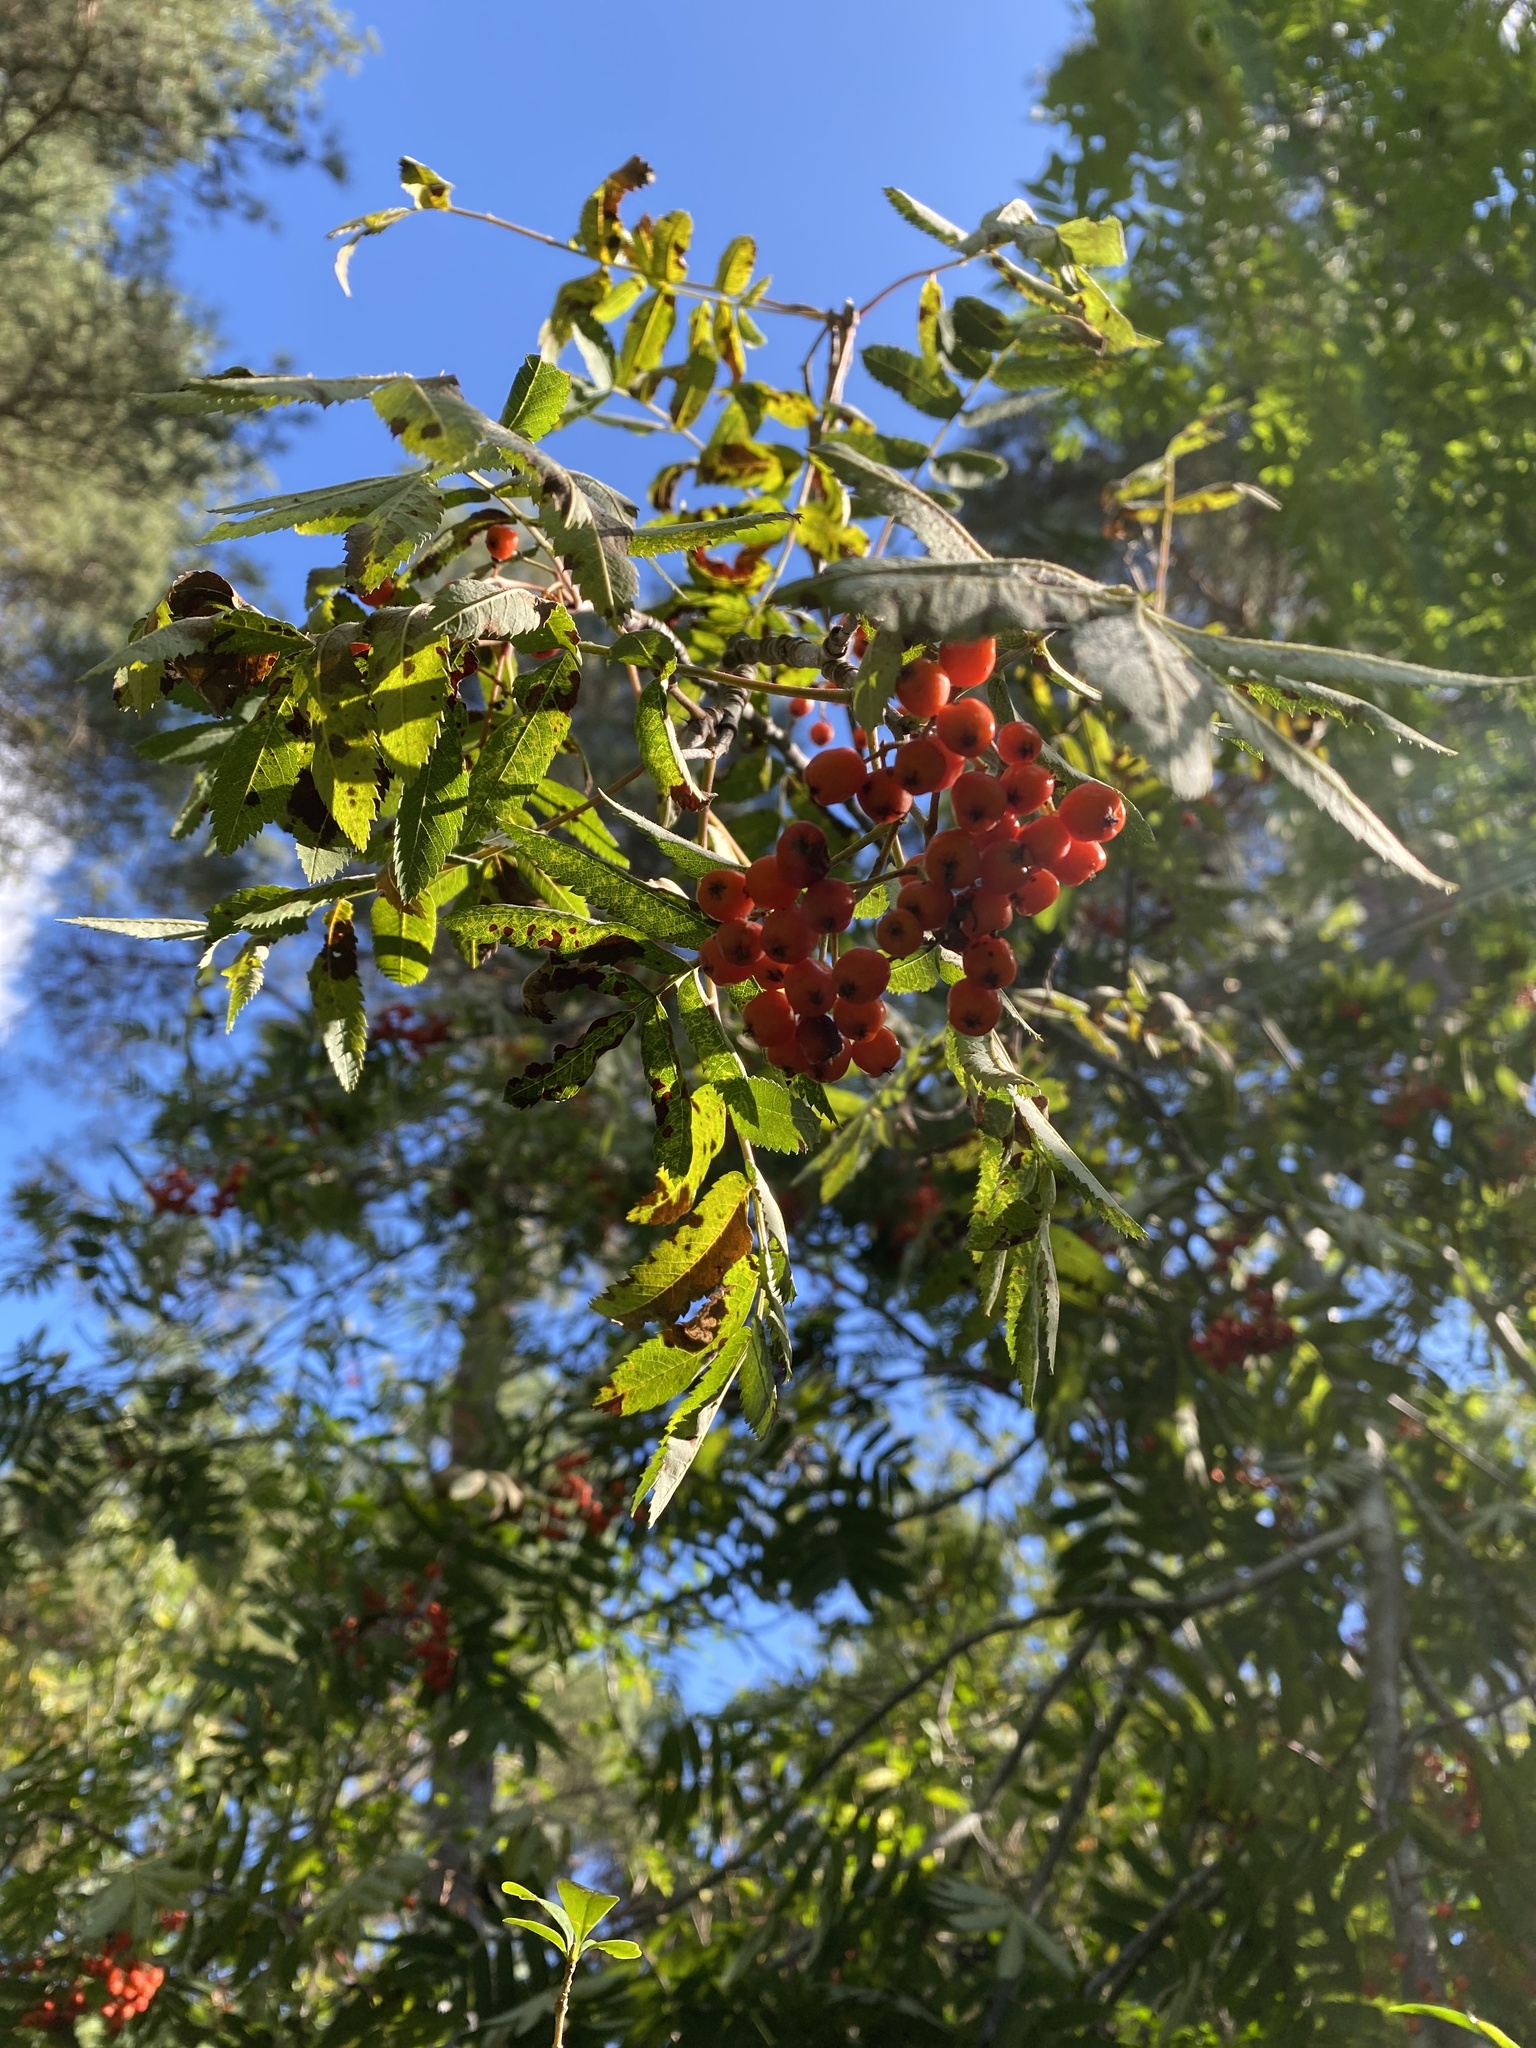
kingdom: Plantae
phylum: Tracheophyta
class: Magnoliopsida
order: Rosales
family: Rosaceae
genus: Sorbus
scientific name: Sorbus aucuparia
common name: Rowan
